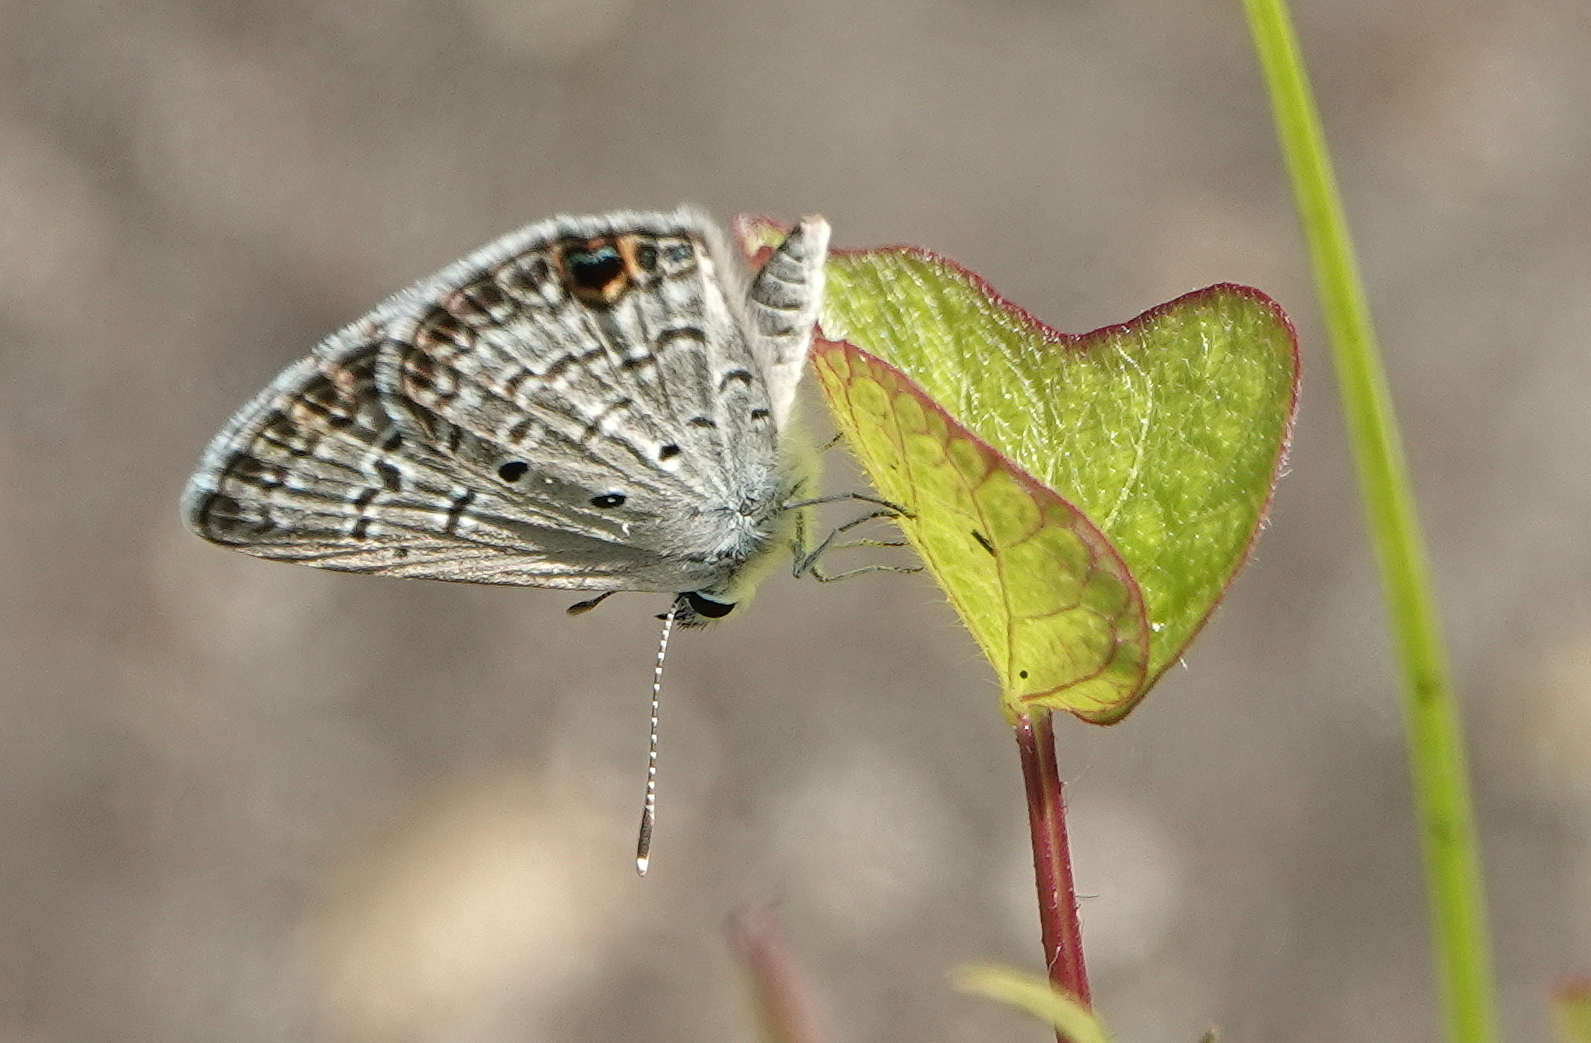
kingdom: Animalia
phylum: Arthropoda
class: Insecta
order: Lepidoptera
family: Lycaenidae
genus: Hemiargus
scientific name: Hemiargus ceraunus
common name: Ceraunus blue
